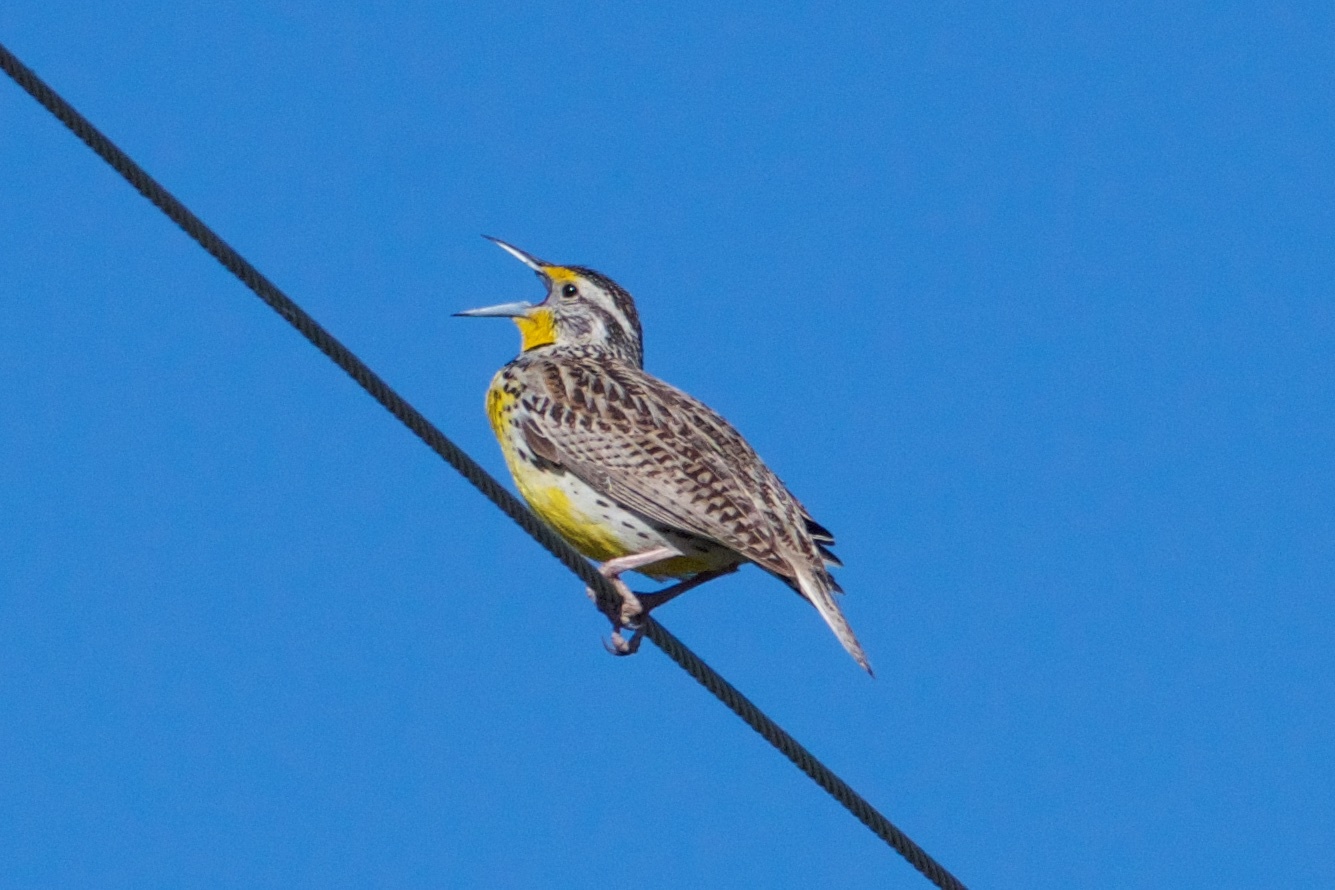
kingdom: Animalia
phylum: Chordata
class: Aves
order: Passeriformes
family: Icteridae
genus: Sturnella
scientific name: Sturnella neglecta
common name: Western meadowlark
